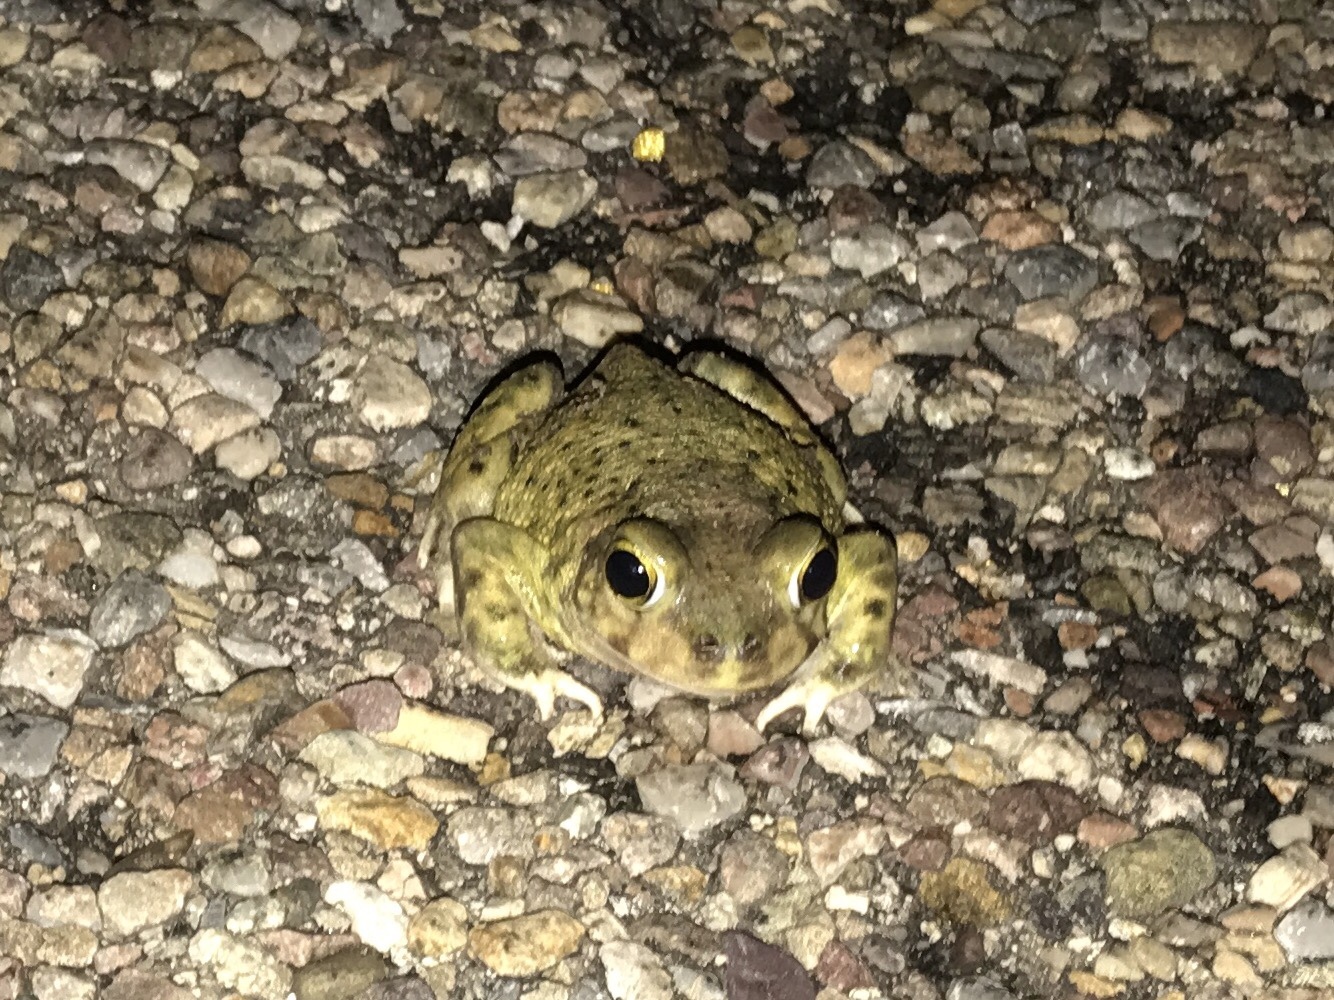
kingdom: Animalia
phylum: Chordata
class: Amphibia
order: Anura
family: Scaphiopodidae
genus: Scaphiopus
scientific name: Scaphiopus couchii
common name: Couch's spadefoot toad
